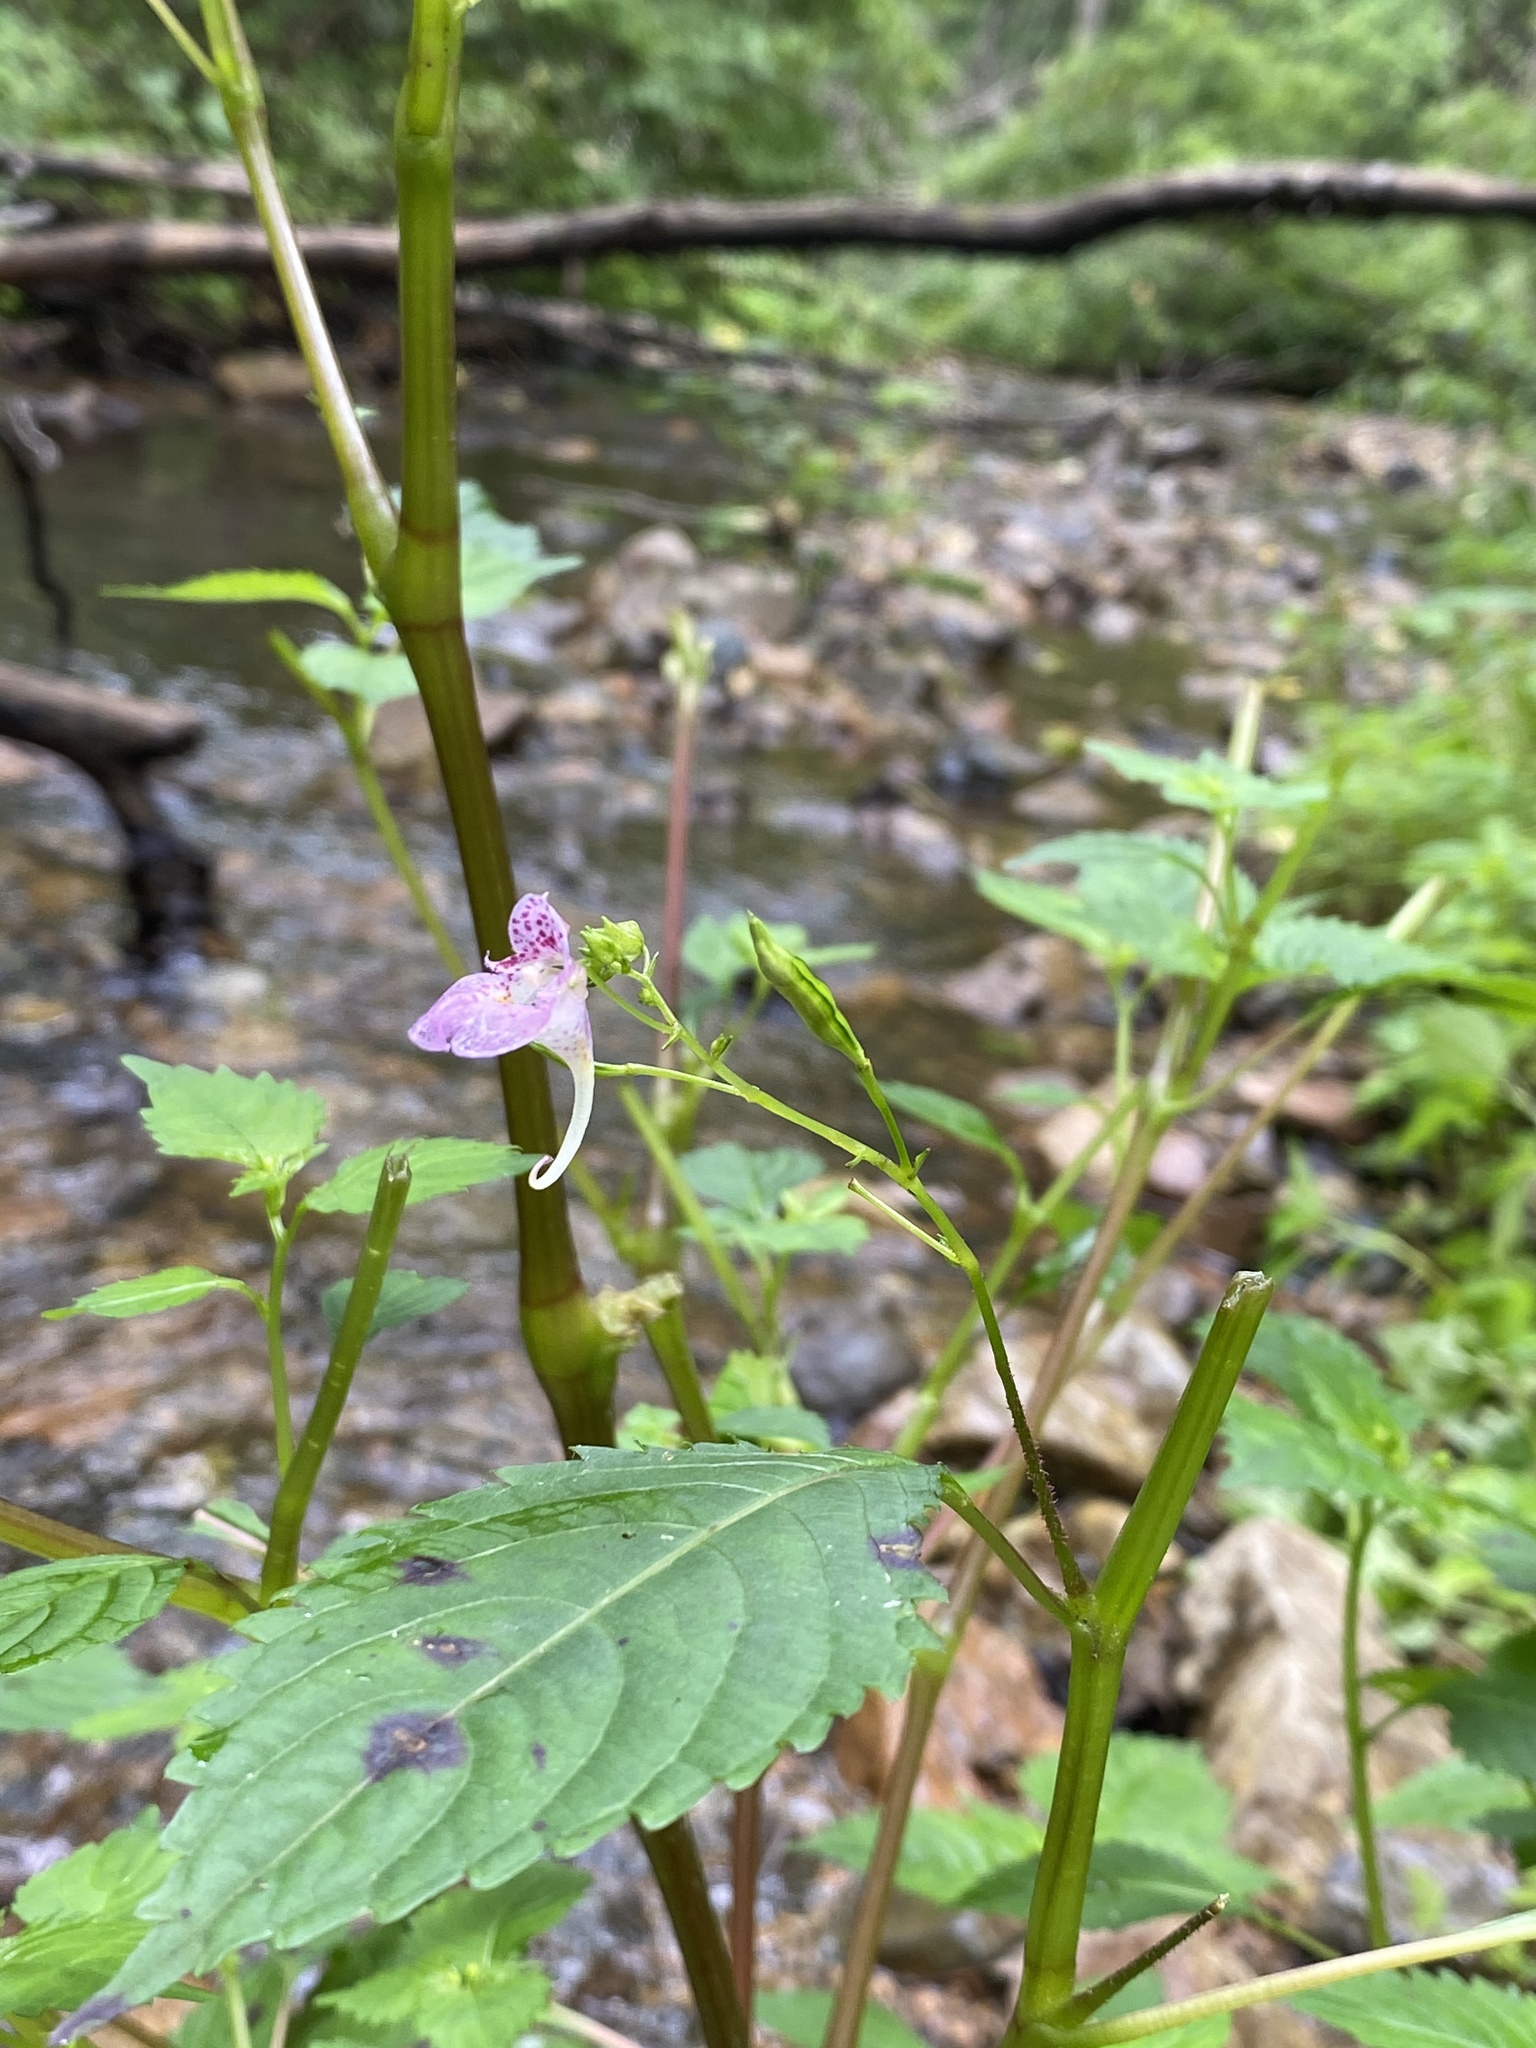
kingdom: Plantae
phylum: Tracheophyta
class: Magnoliopsida
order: Ericales
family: Balsaminaceae
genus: Impatiens
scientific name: Impatiens furcillata
